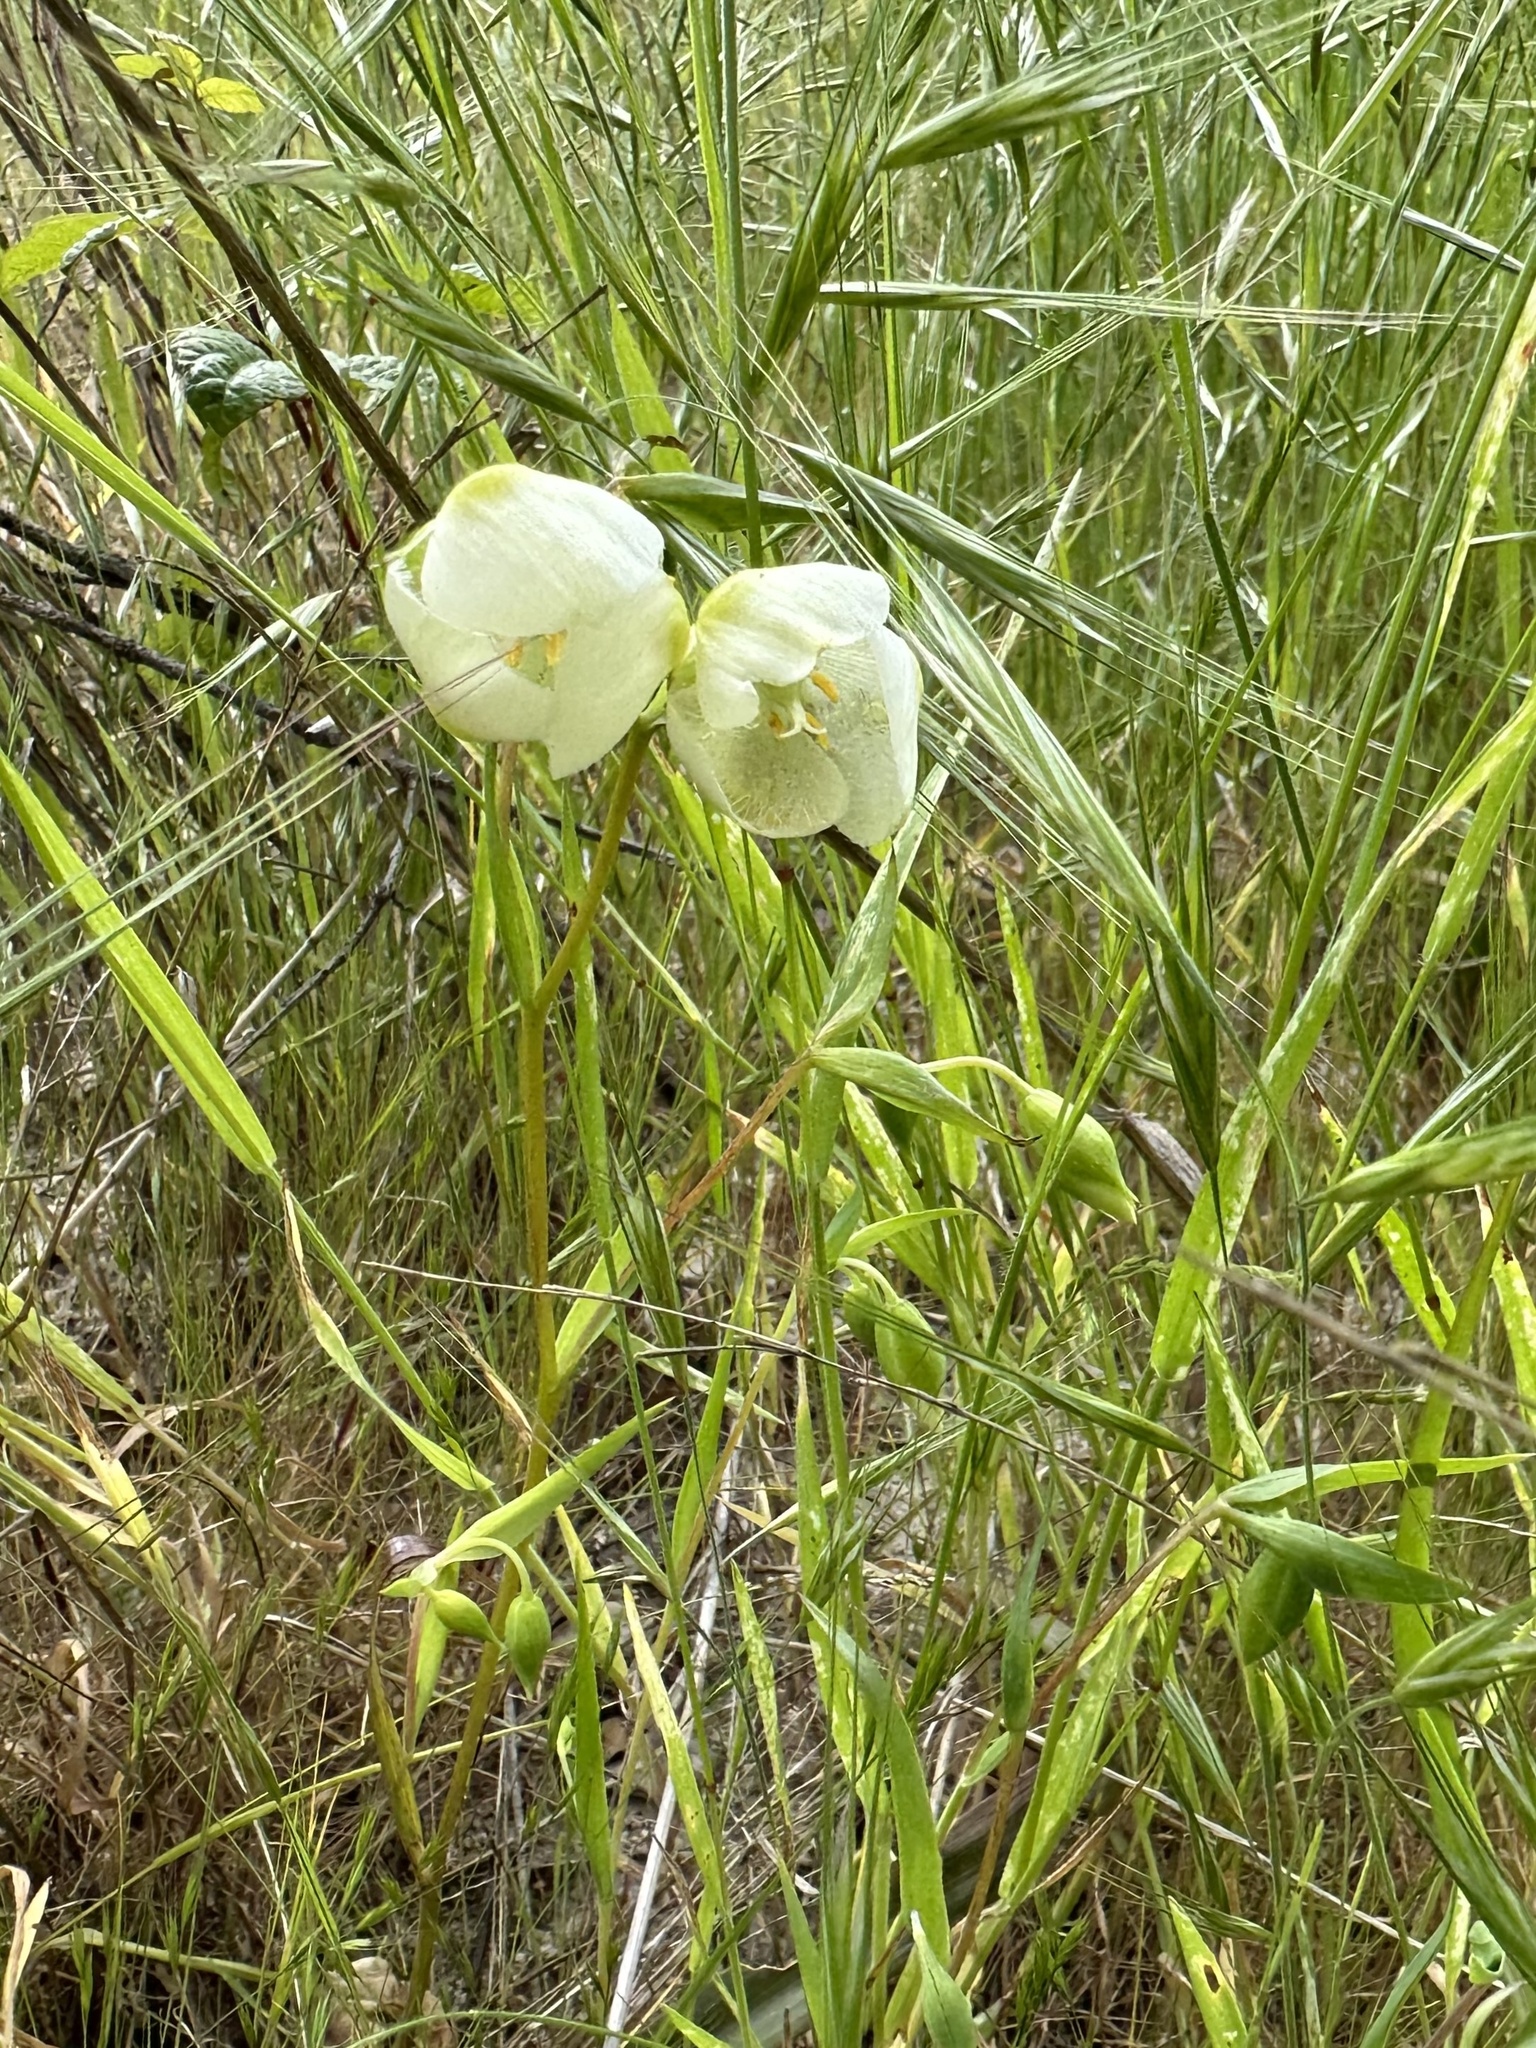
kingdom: Plantae
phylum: Tracheophyta
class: Liliopsida
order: Liliales
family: Liliaceae
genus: Calochortus
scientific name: Calochortus albus
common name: Fairy-lantern
